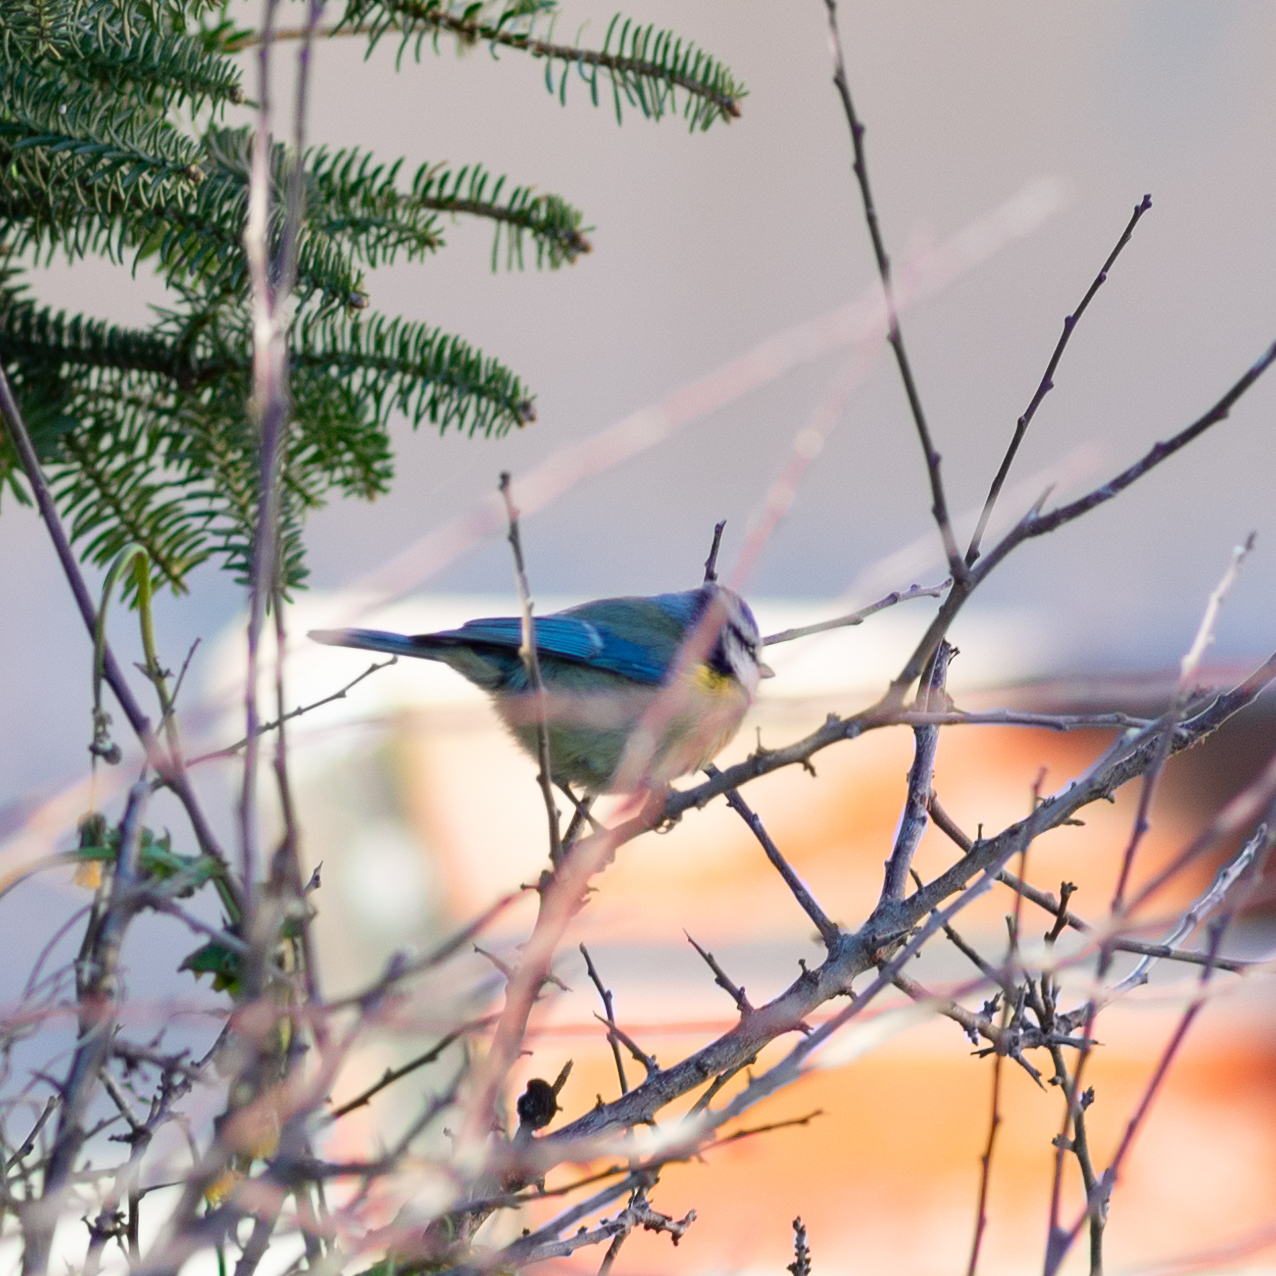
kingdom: Animalia
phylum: Chordata
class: Aves
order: Passeriformes
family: Paridae
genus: Cyanistes
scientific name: Cyanistes caeruleus
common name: Eurasian blue tit
